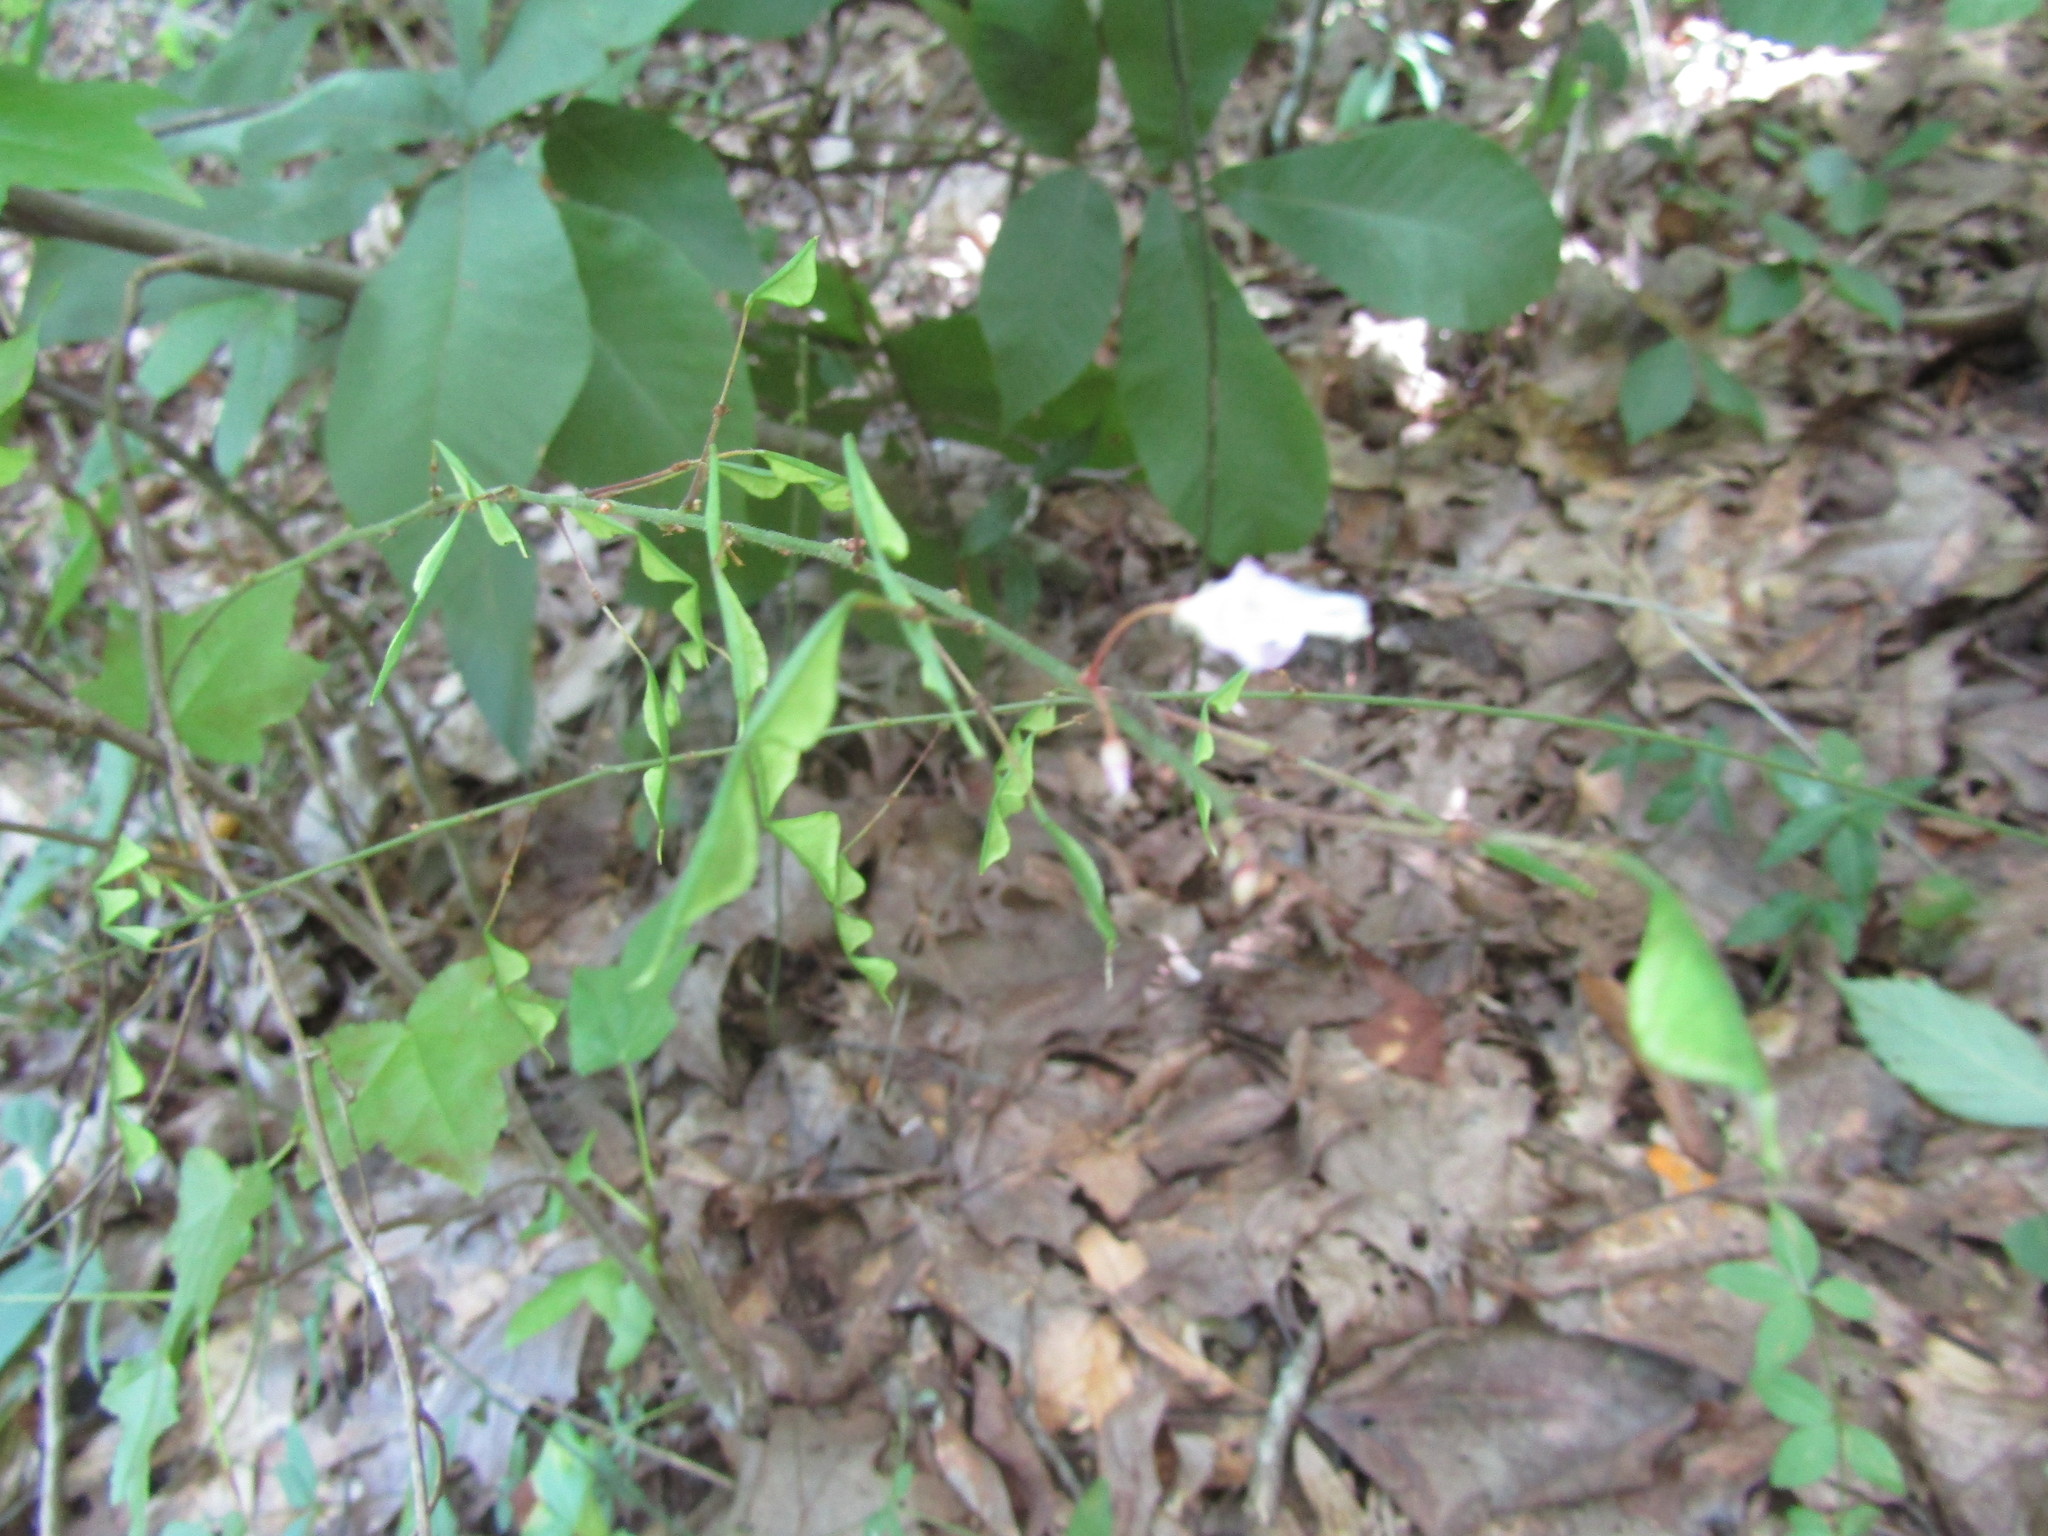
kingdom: Plantae
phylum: Tracheophyta
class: Magnoliopsida
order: Fabales
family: Fabaceae
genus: Hylodesmum
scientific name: Hylodesmum nudiflorum
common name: Bare-stemmed tick-trefoil
